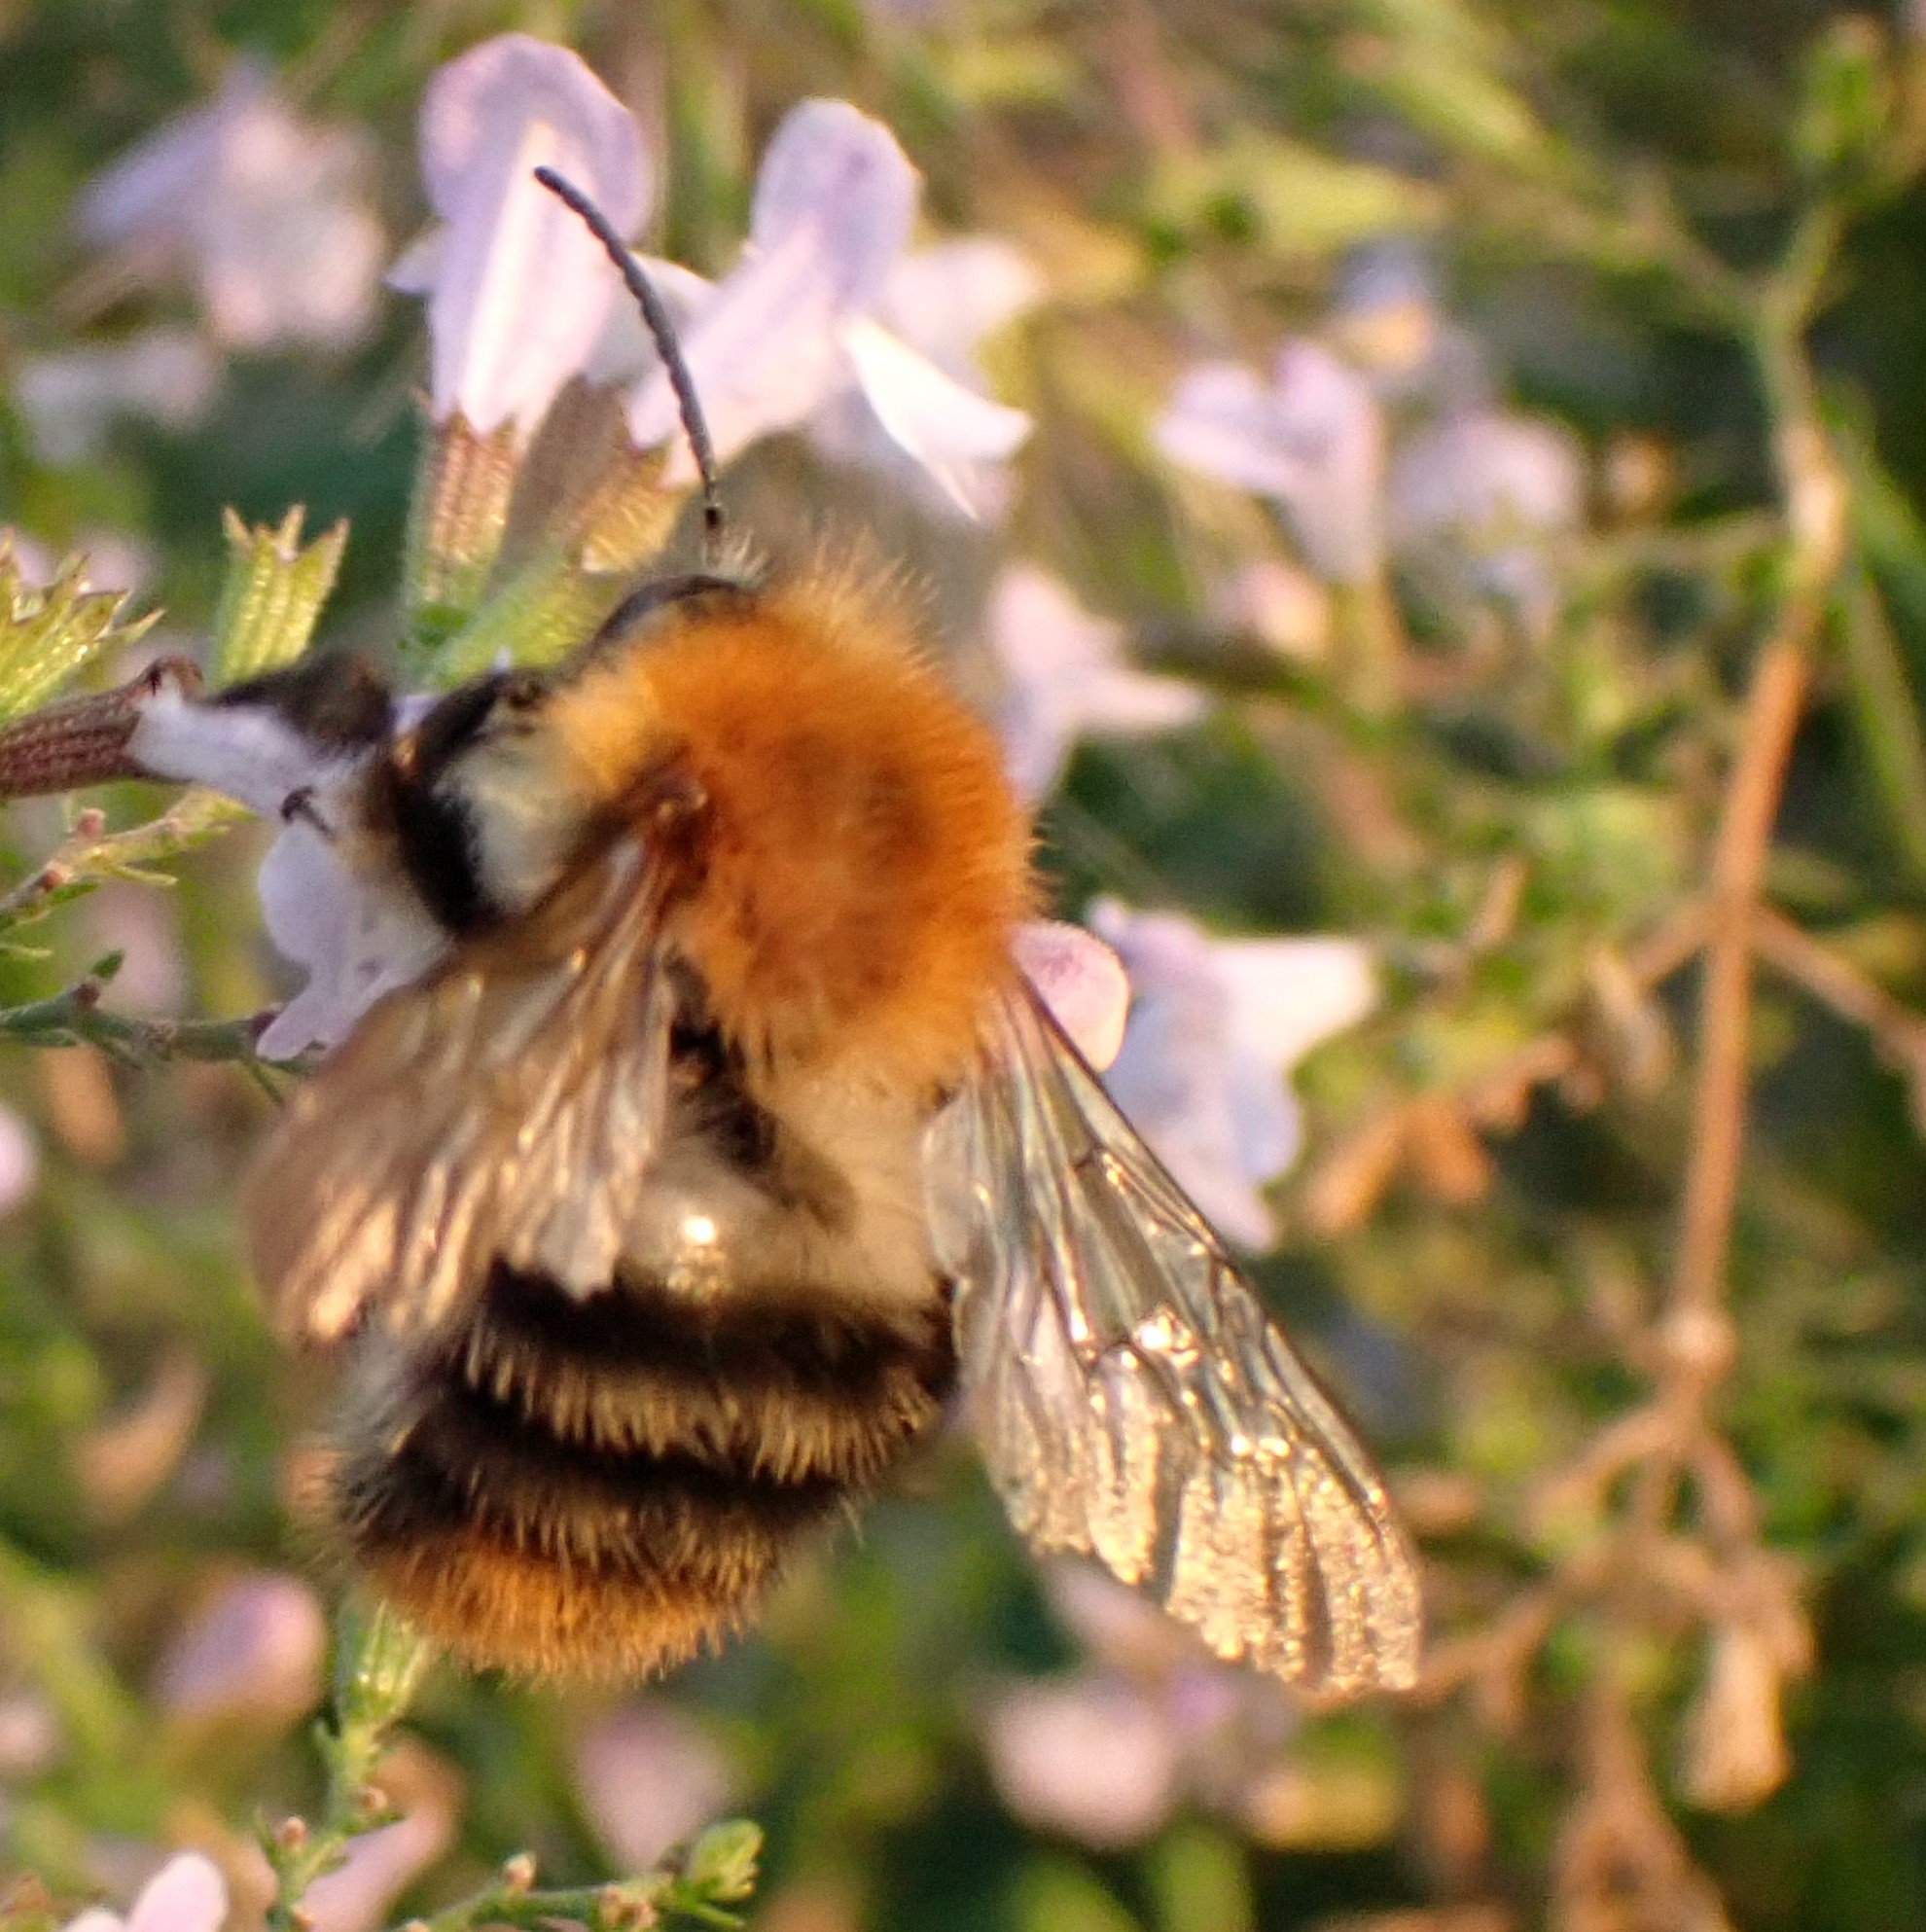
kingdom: Animalia
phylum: Arthropoda
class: Insecta
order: Hymenoptera
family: Apidae
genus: Bombus
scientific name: Bombus pascuorum
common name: Common carder bee
